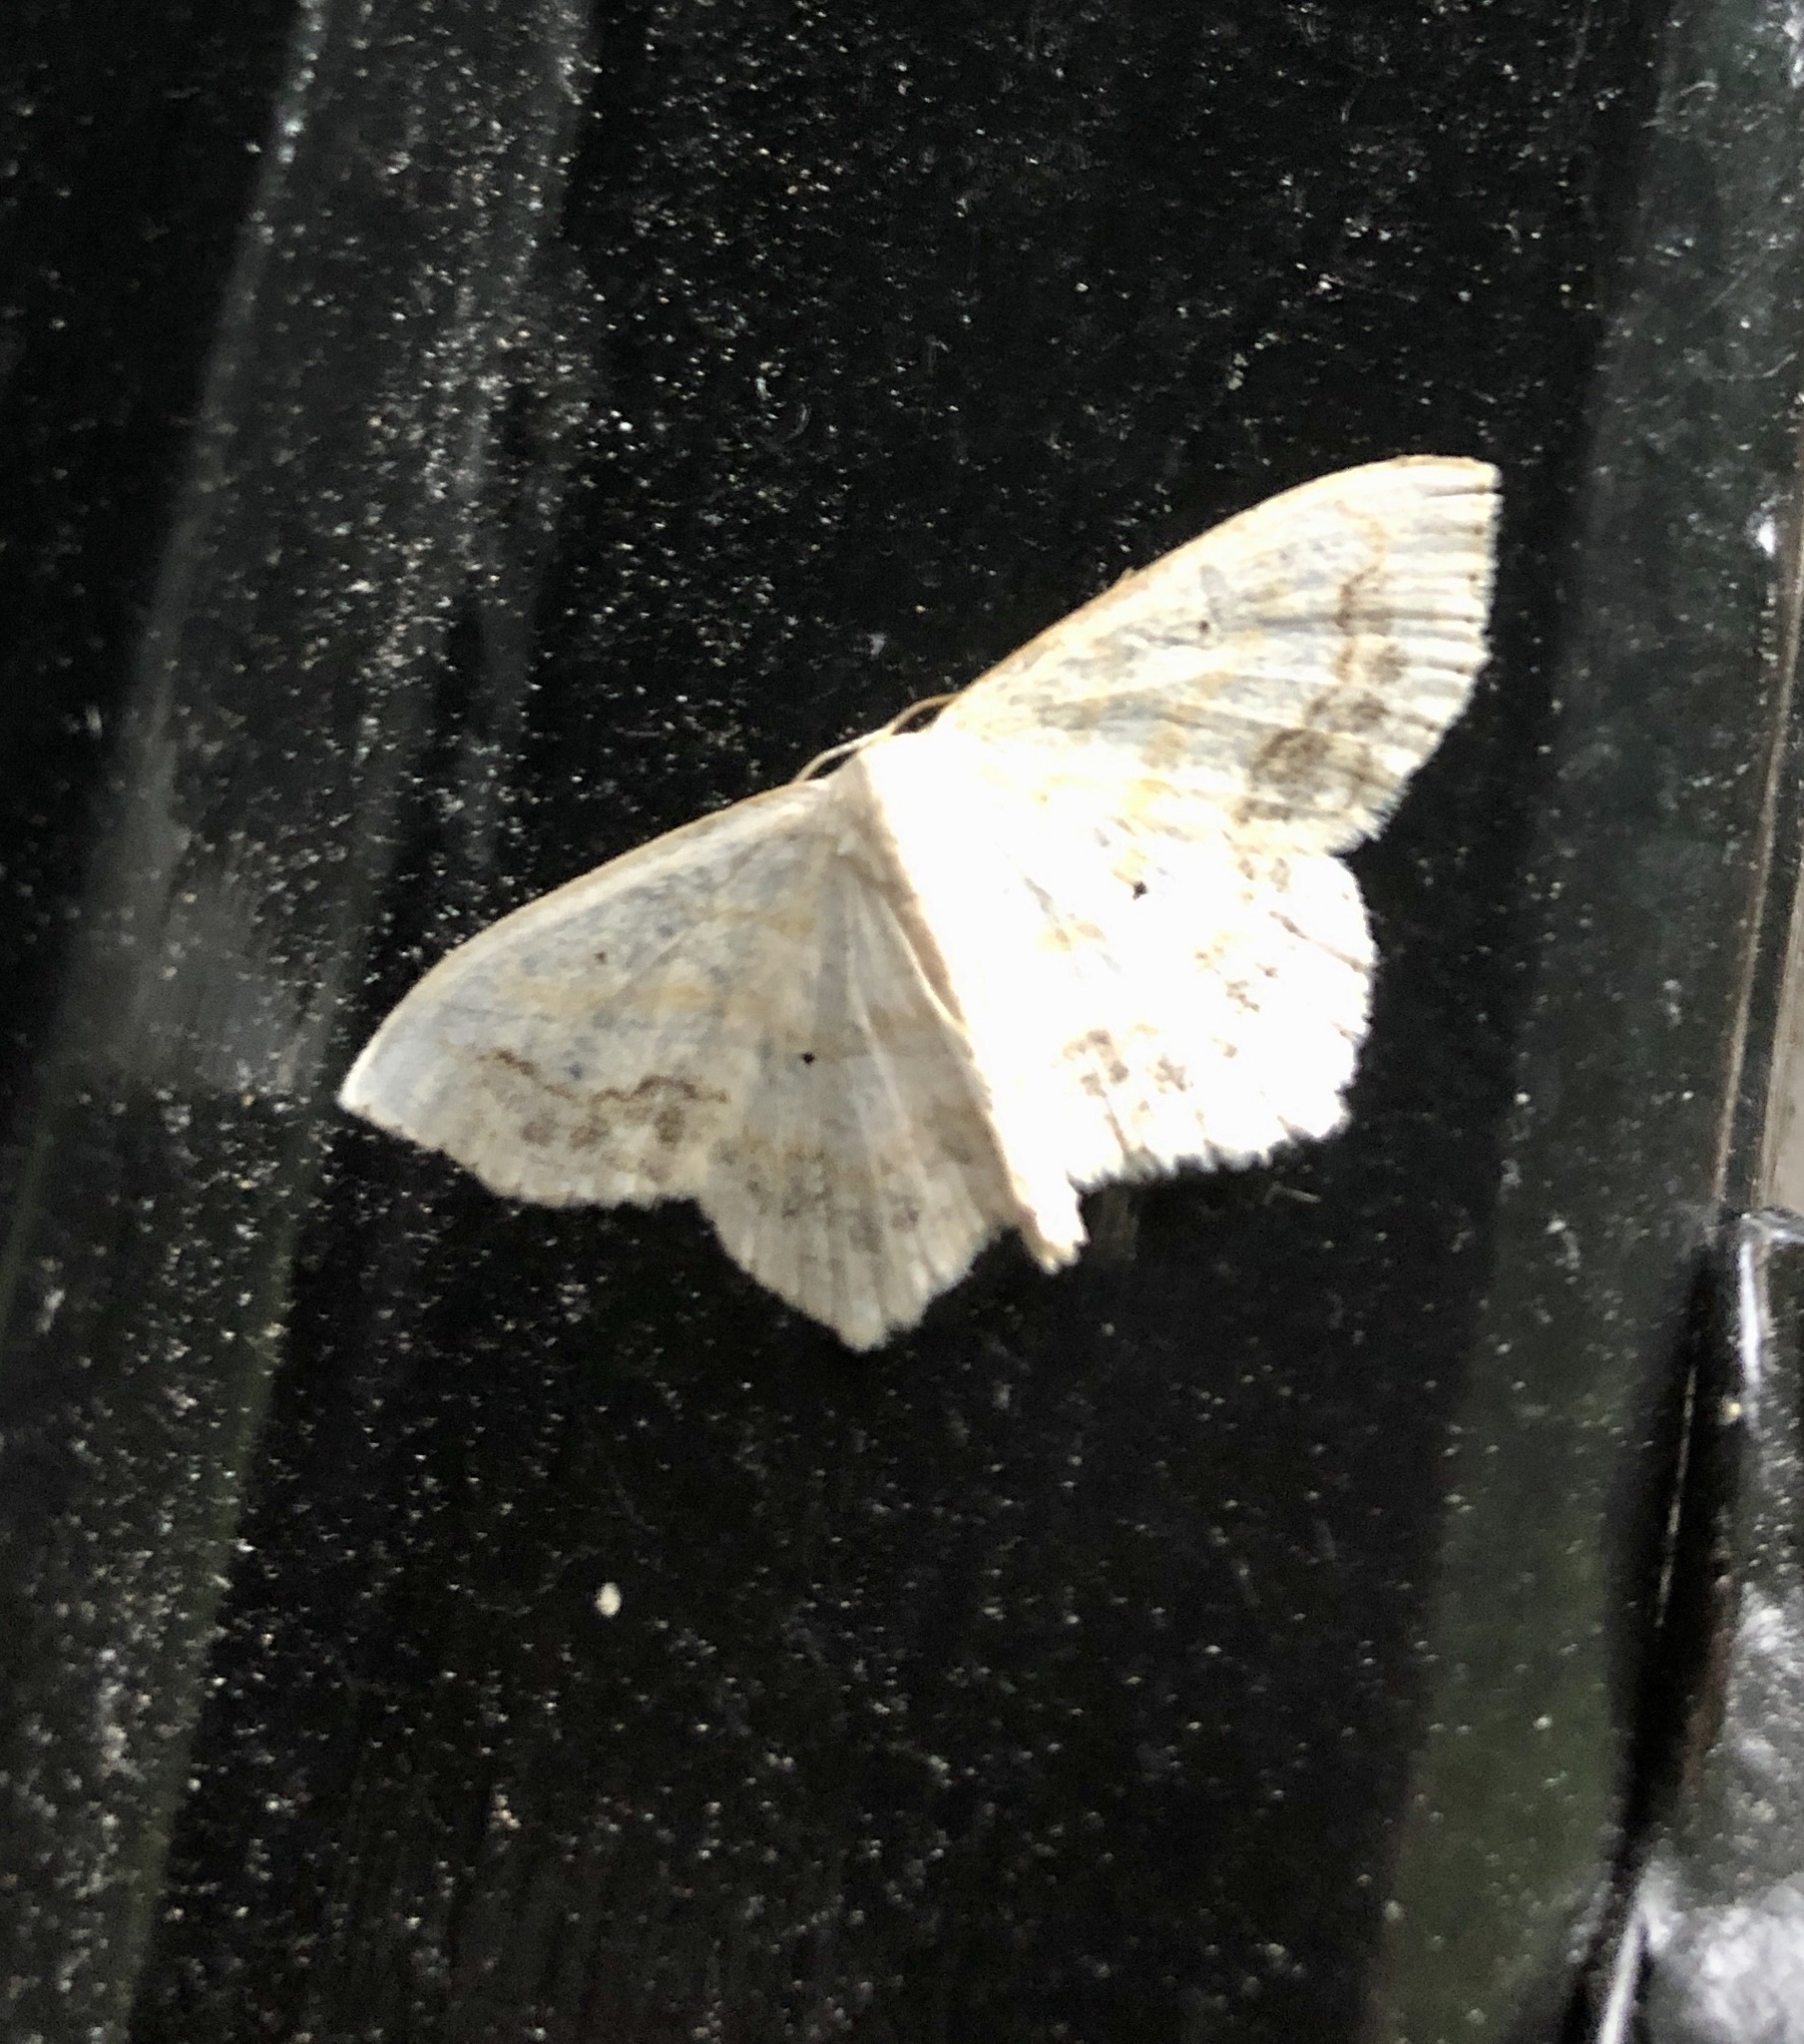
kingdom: Animalia
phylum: Arthropoda
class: Insecta
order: Lepidoptera
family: Geometridae
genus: Scopula
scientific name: Scopula limboundata
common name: Large lace border
